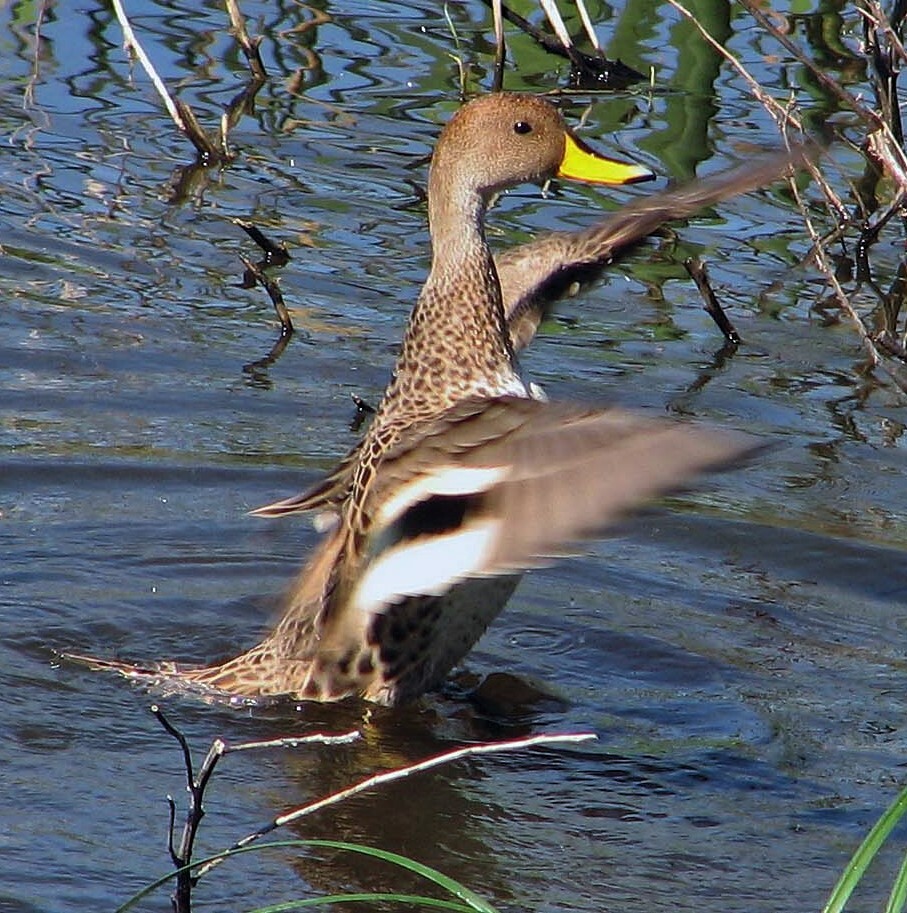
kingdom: Animalia
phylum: Chordata
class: Aves
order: Anseriformes
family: Anatidae
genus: Anas
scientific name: Anas georgica
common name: Yellow-billed pintail
